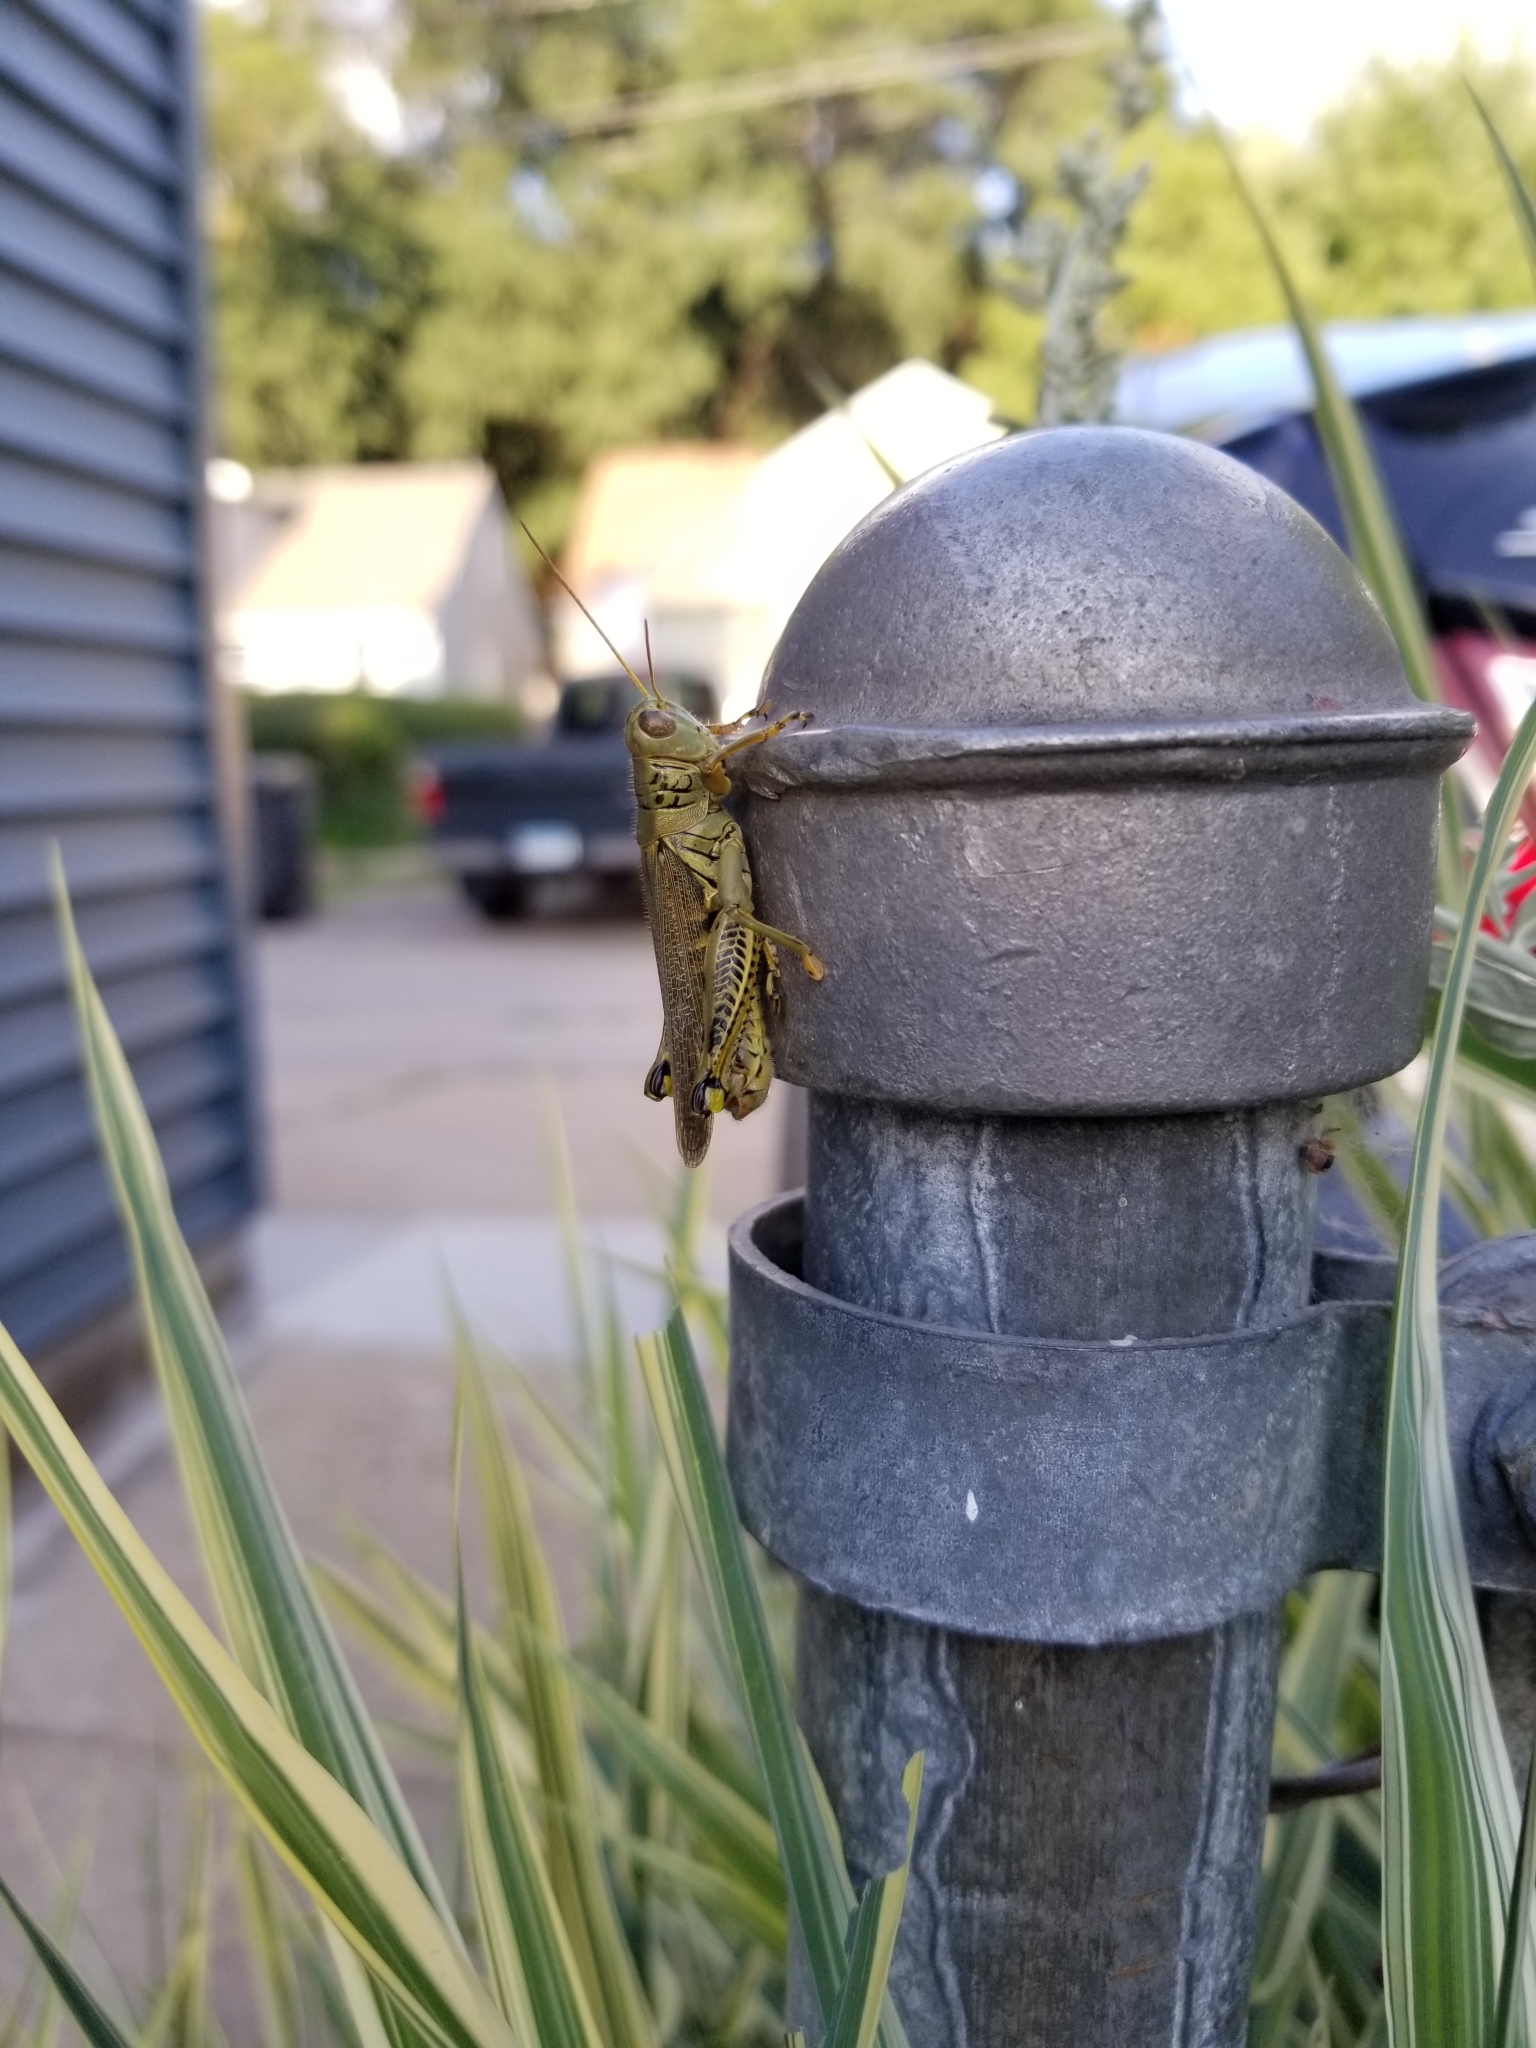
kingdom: Animalia
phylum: Arthropoda
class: Insecta
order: Orthoptera
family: Acrididae
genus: Melanoplus
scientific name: Melanoplus differentialis
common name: Differential grasshopper
